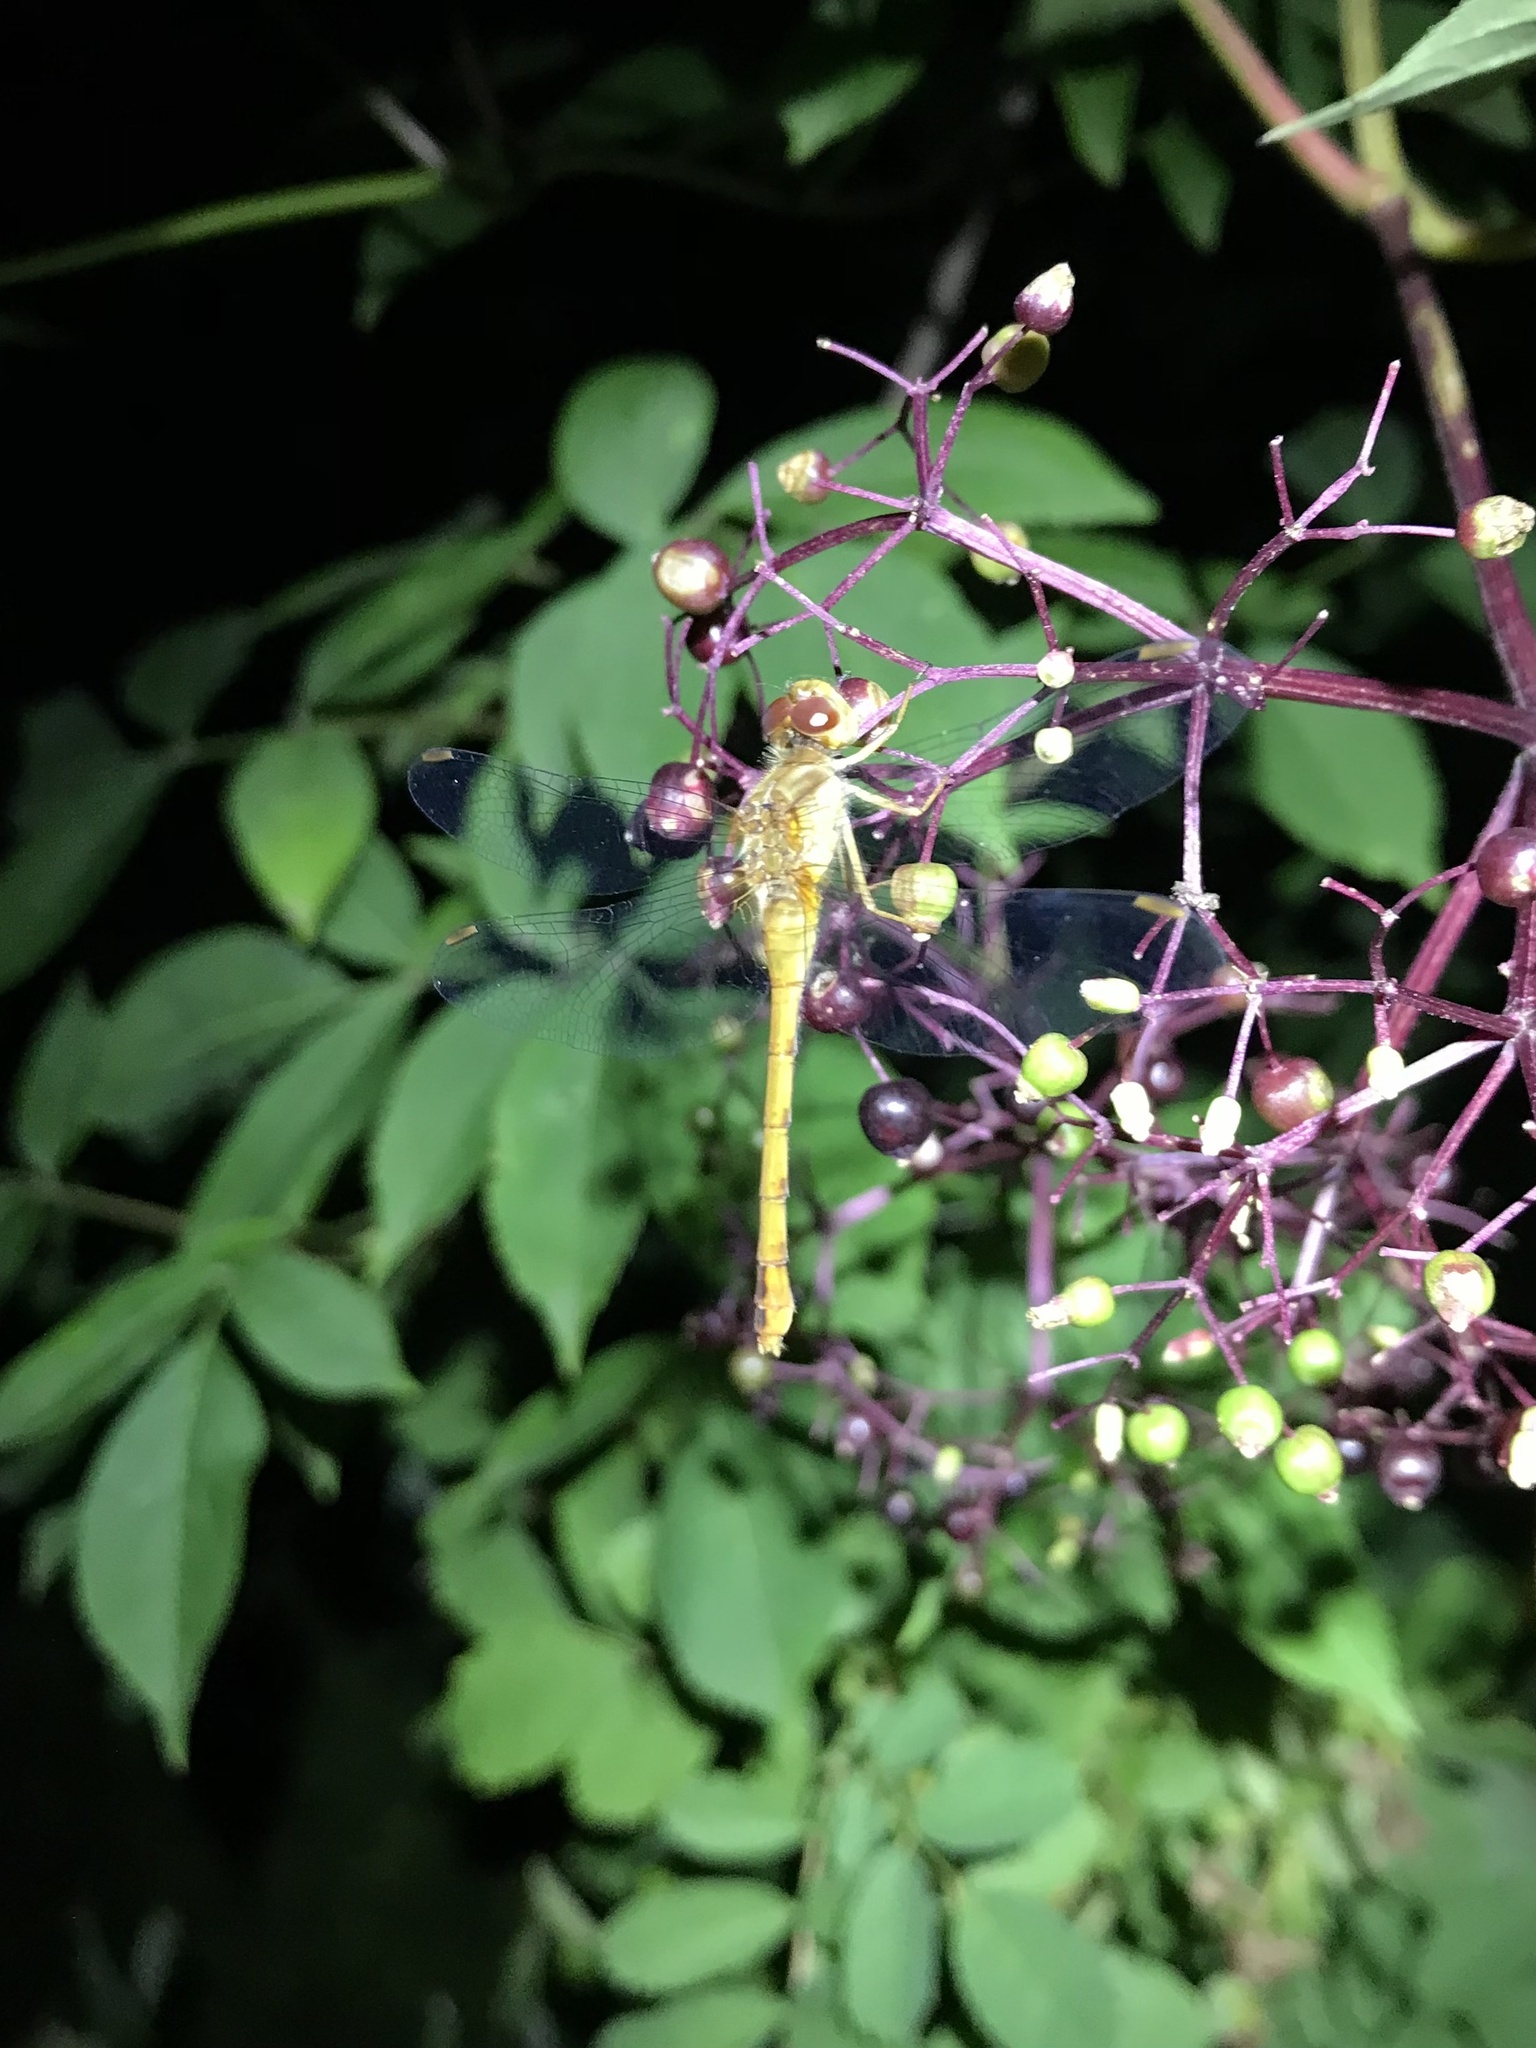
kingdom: Animalia
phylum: Arthropoda
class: Insecta
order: Odonata
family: Libellulidae
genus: Sympetrum
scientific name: Sympetrum vicinum
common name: Autumn meadowhawk
